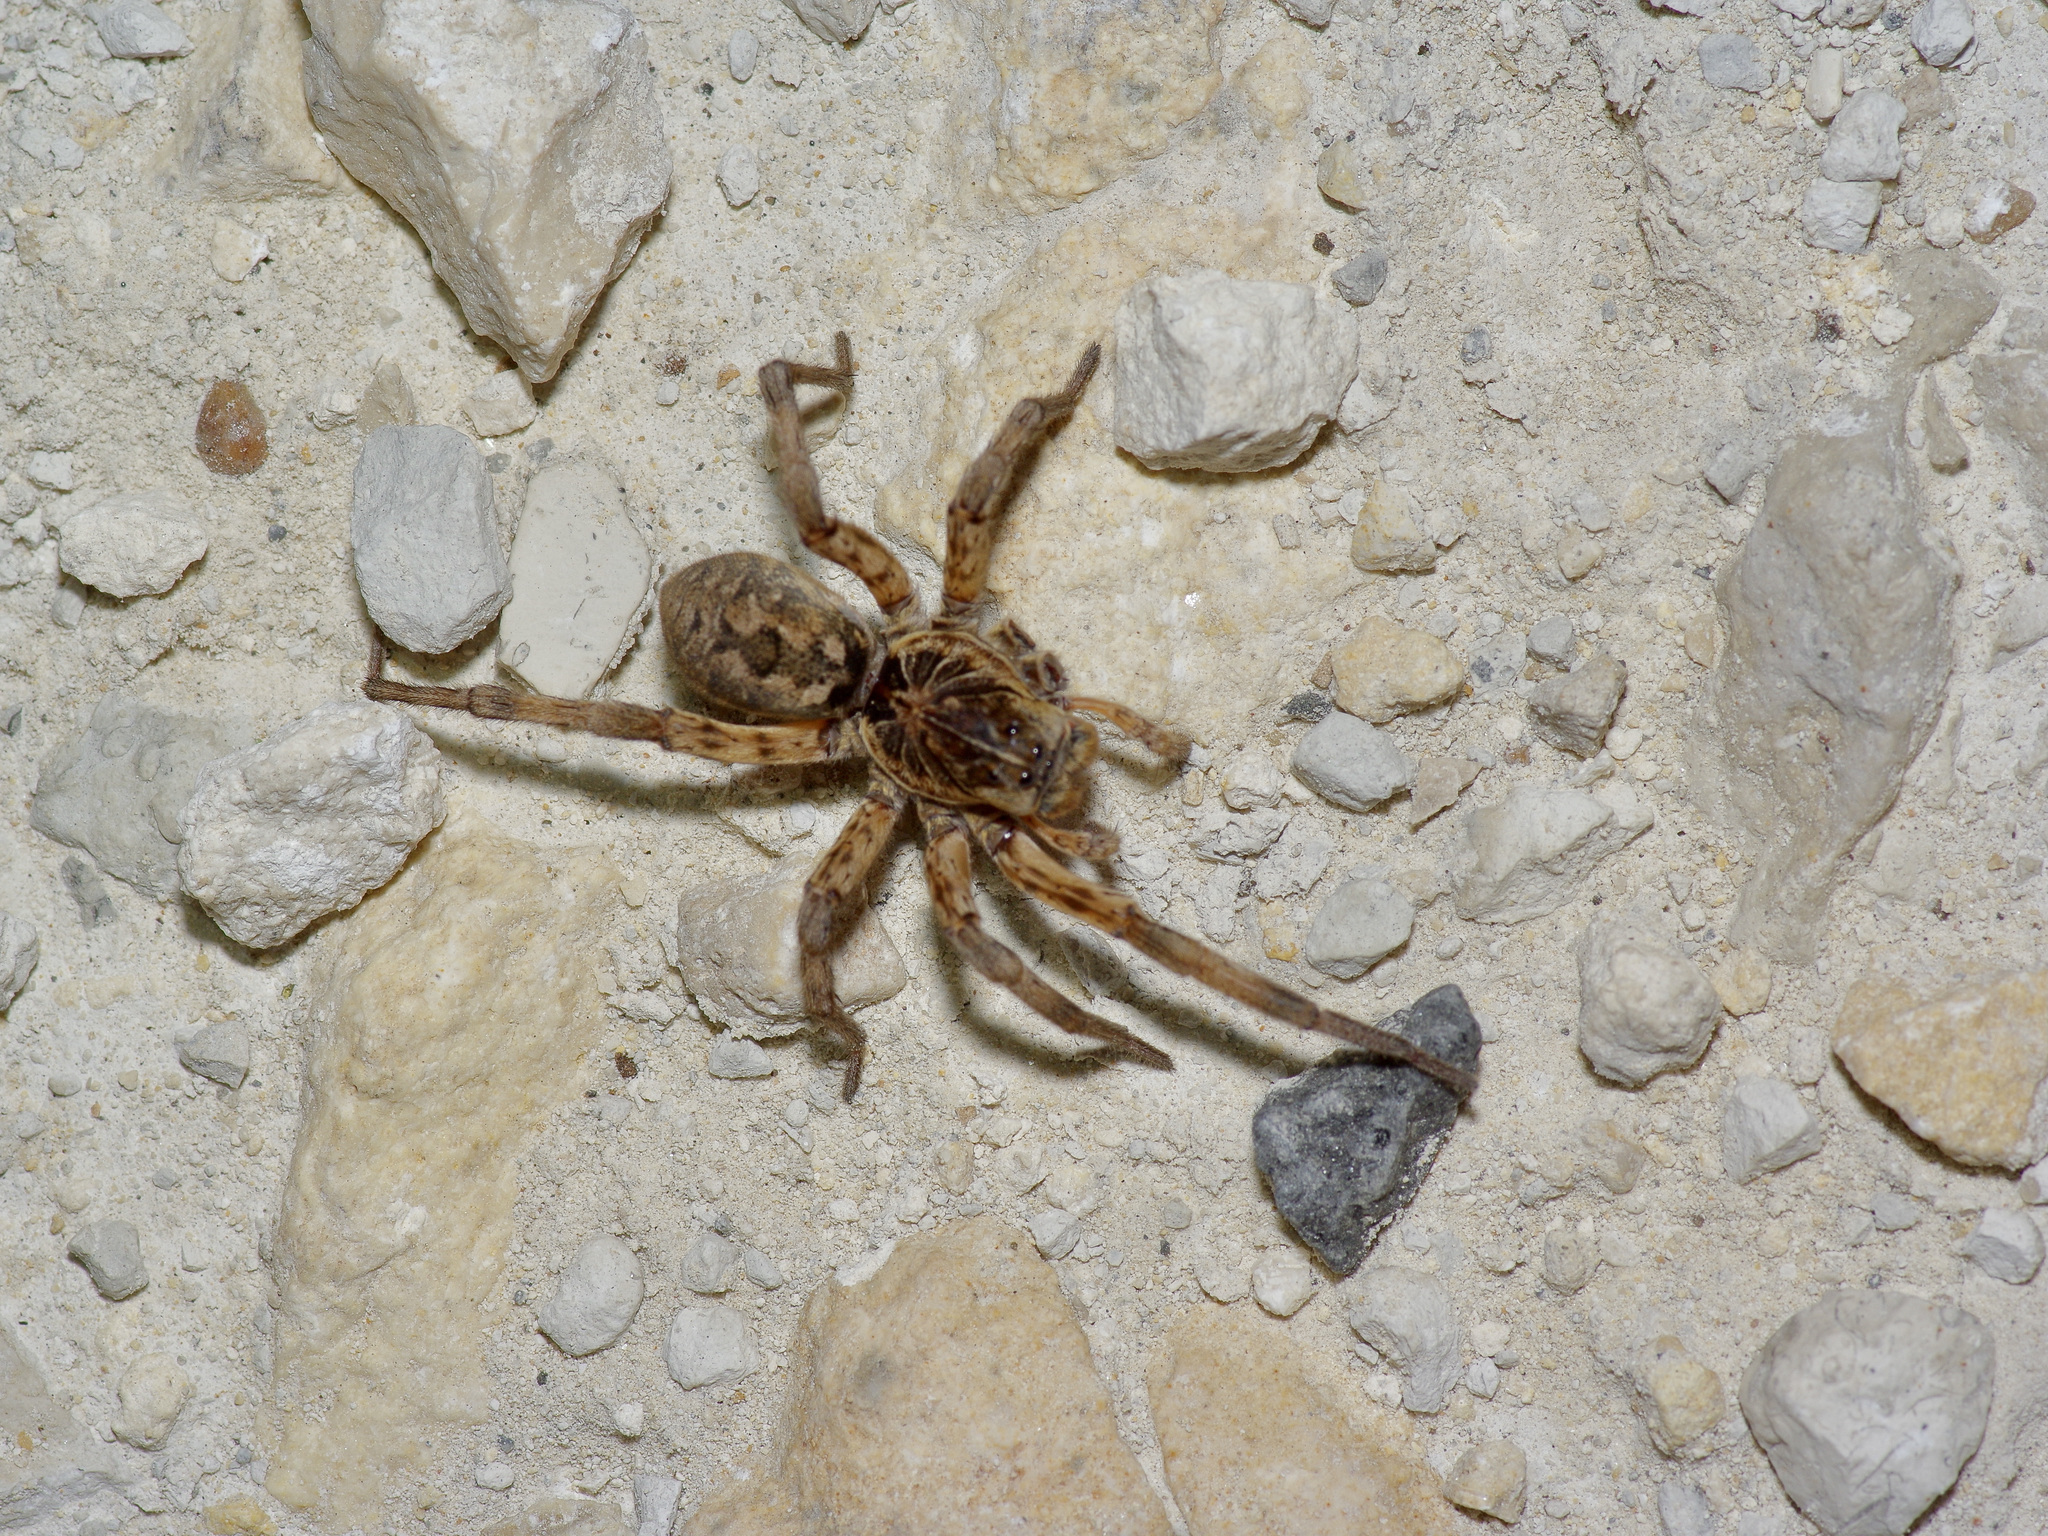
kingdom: Animalia
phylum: Arthropoda
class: Arachnida
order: Araneae
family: Lycosidae
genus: Hogna
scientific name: Hogna baltimoriana
